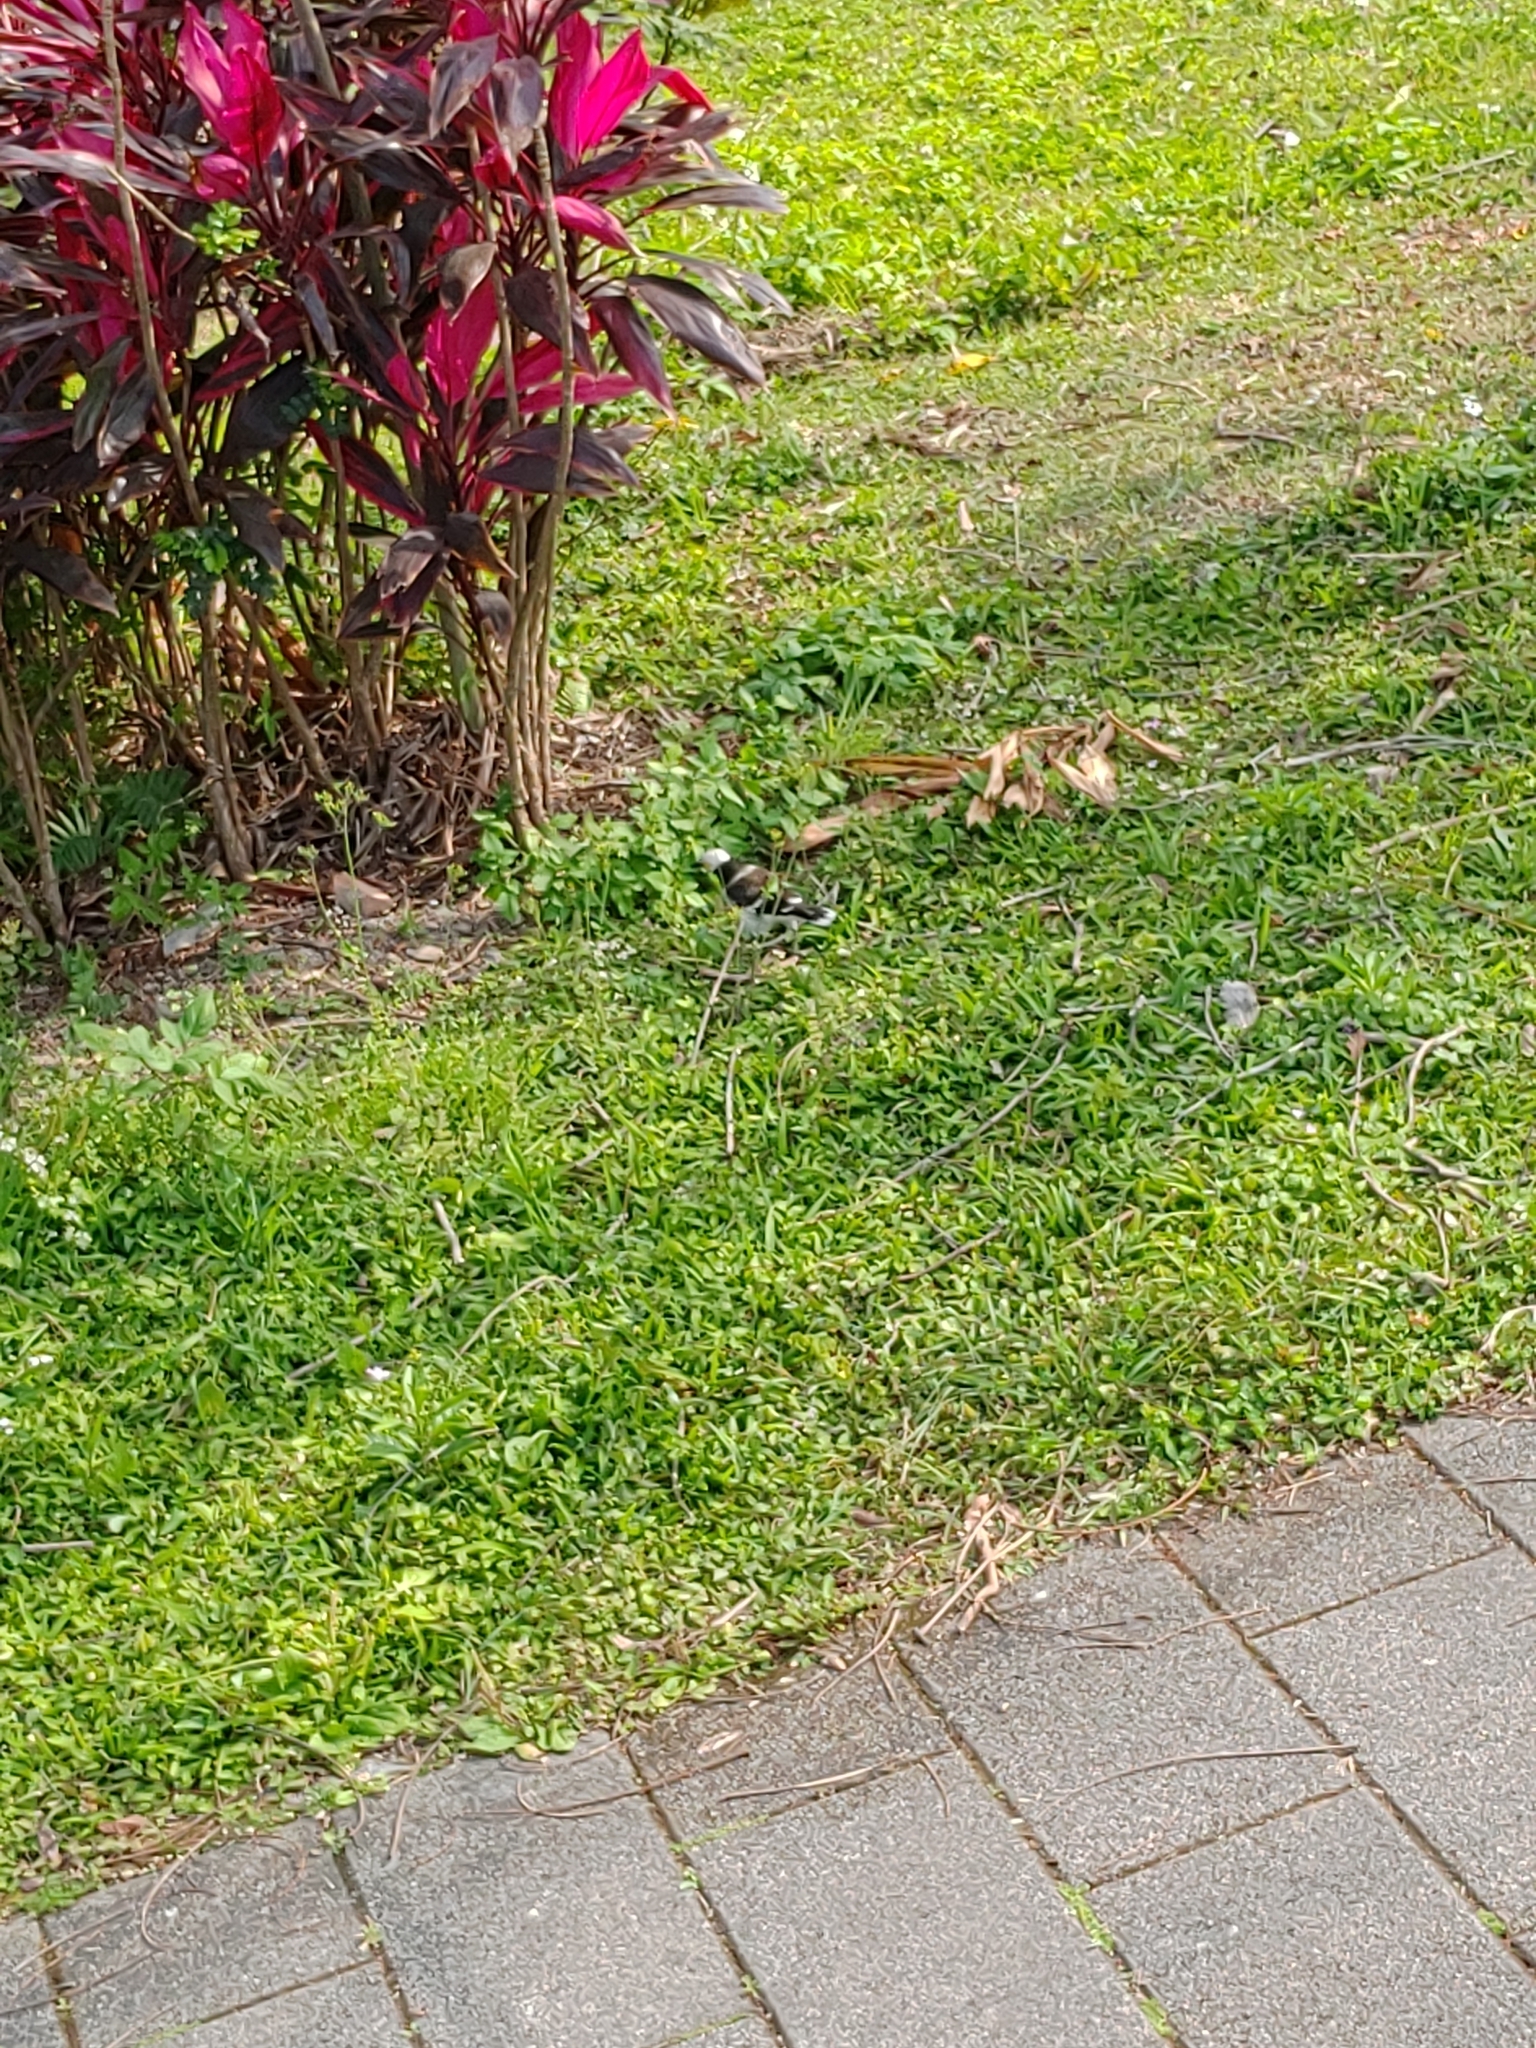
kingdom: Animalia
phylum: Chordata
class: Aves
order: Passeriformes
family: Sturnidae
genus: Gracupica
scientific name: Gracupica nigricollis
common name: Black-collared starling
